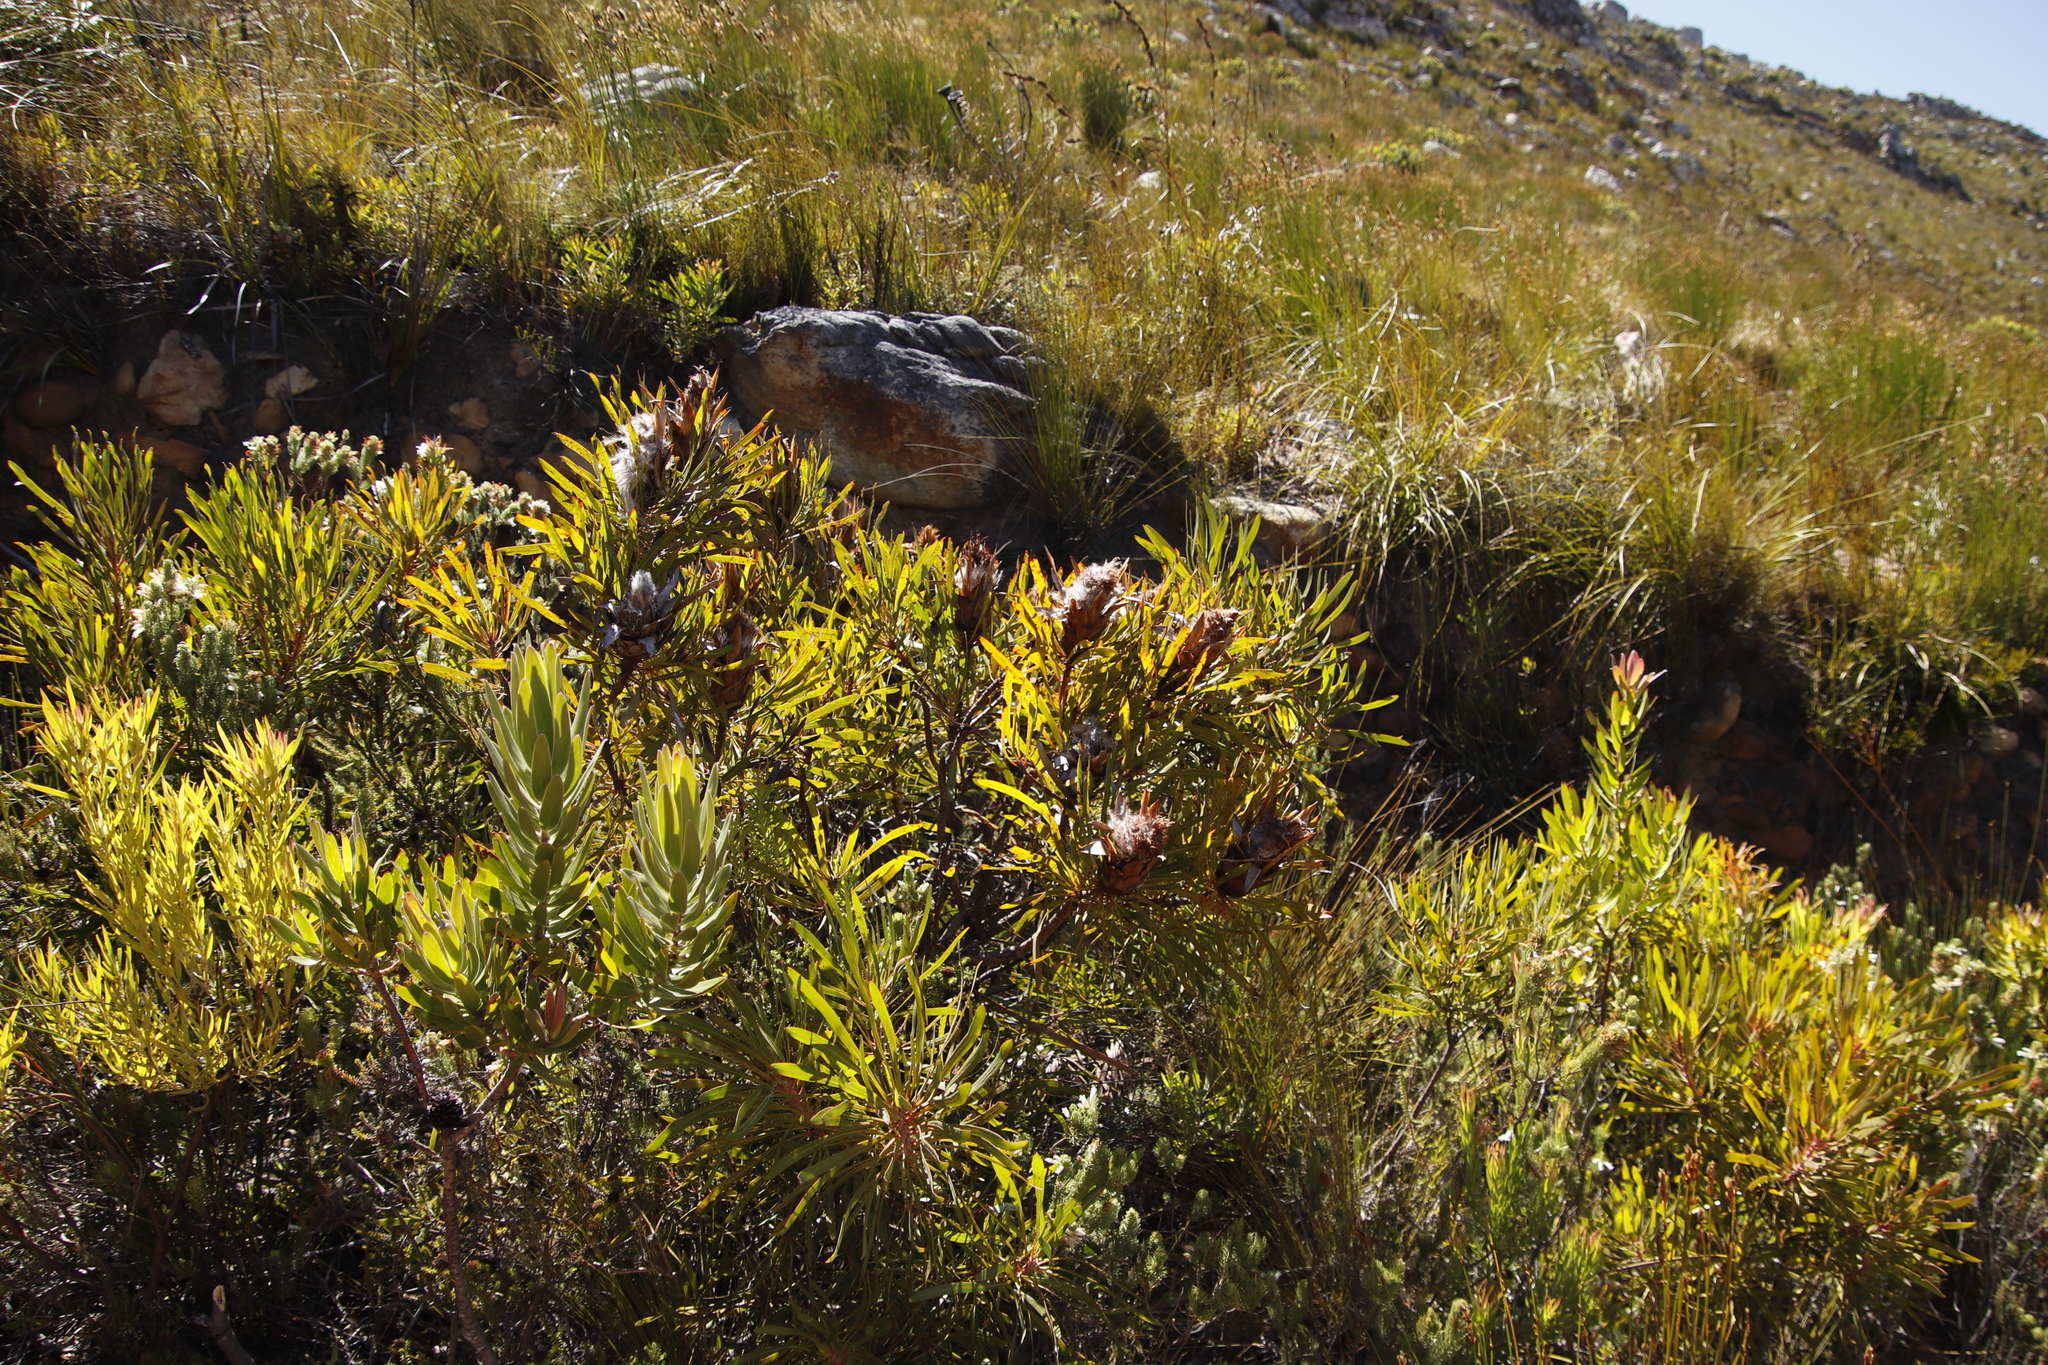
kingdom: Plantae
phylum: Tracheophyta
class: Magnoliopsida
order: Proteales
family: Proteaceae
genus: Protea
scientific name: Protea longifolia
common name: Long-leaf sugarbush
